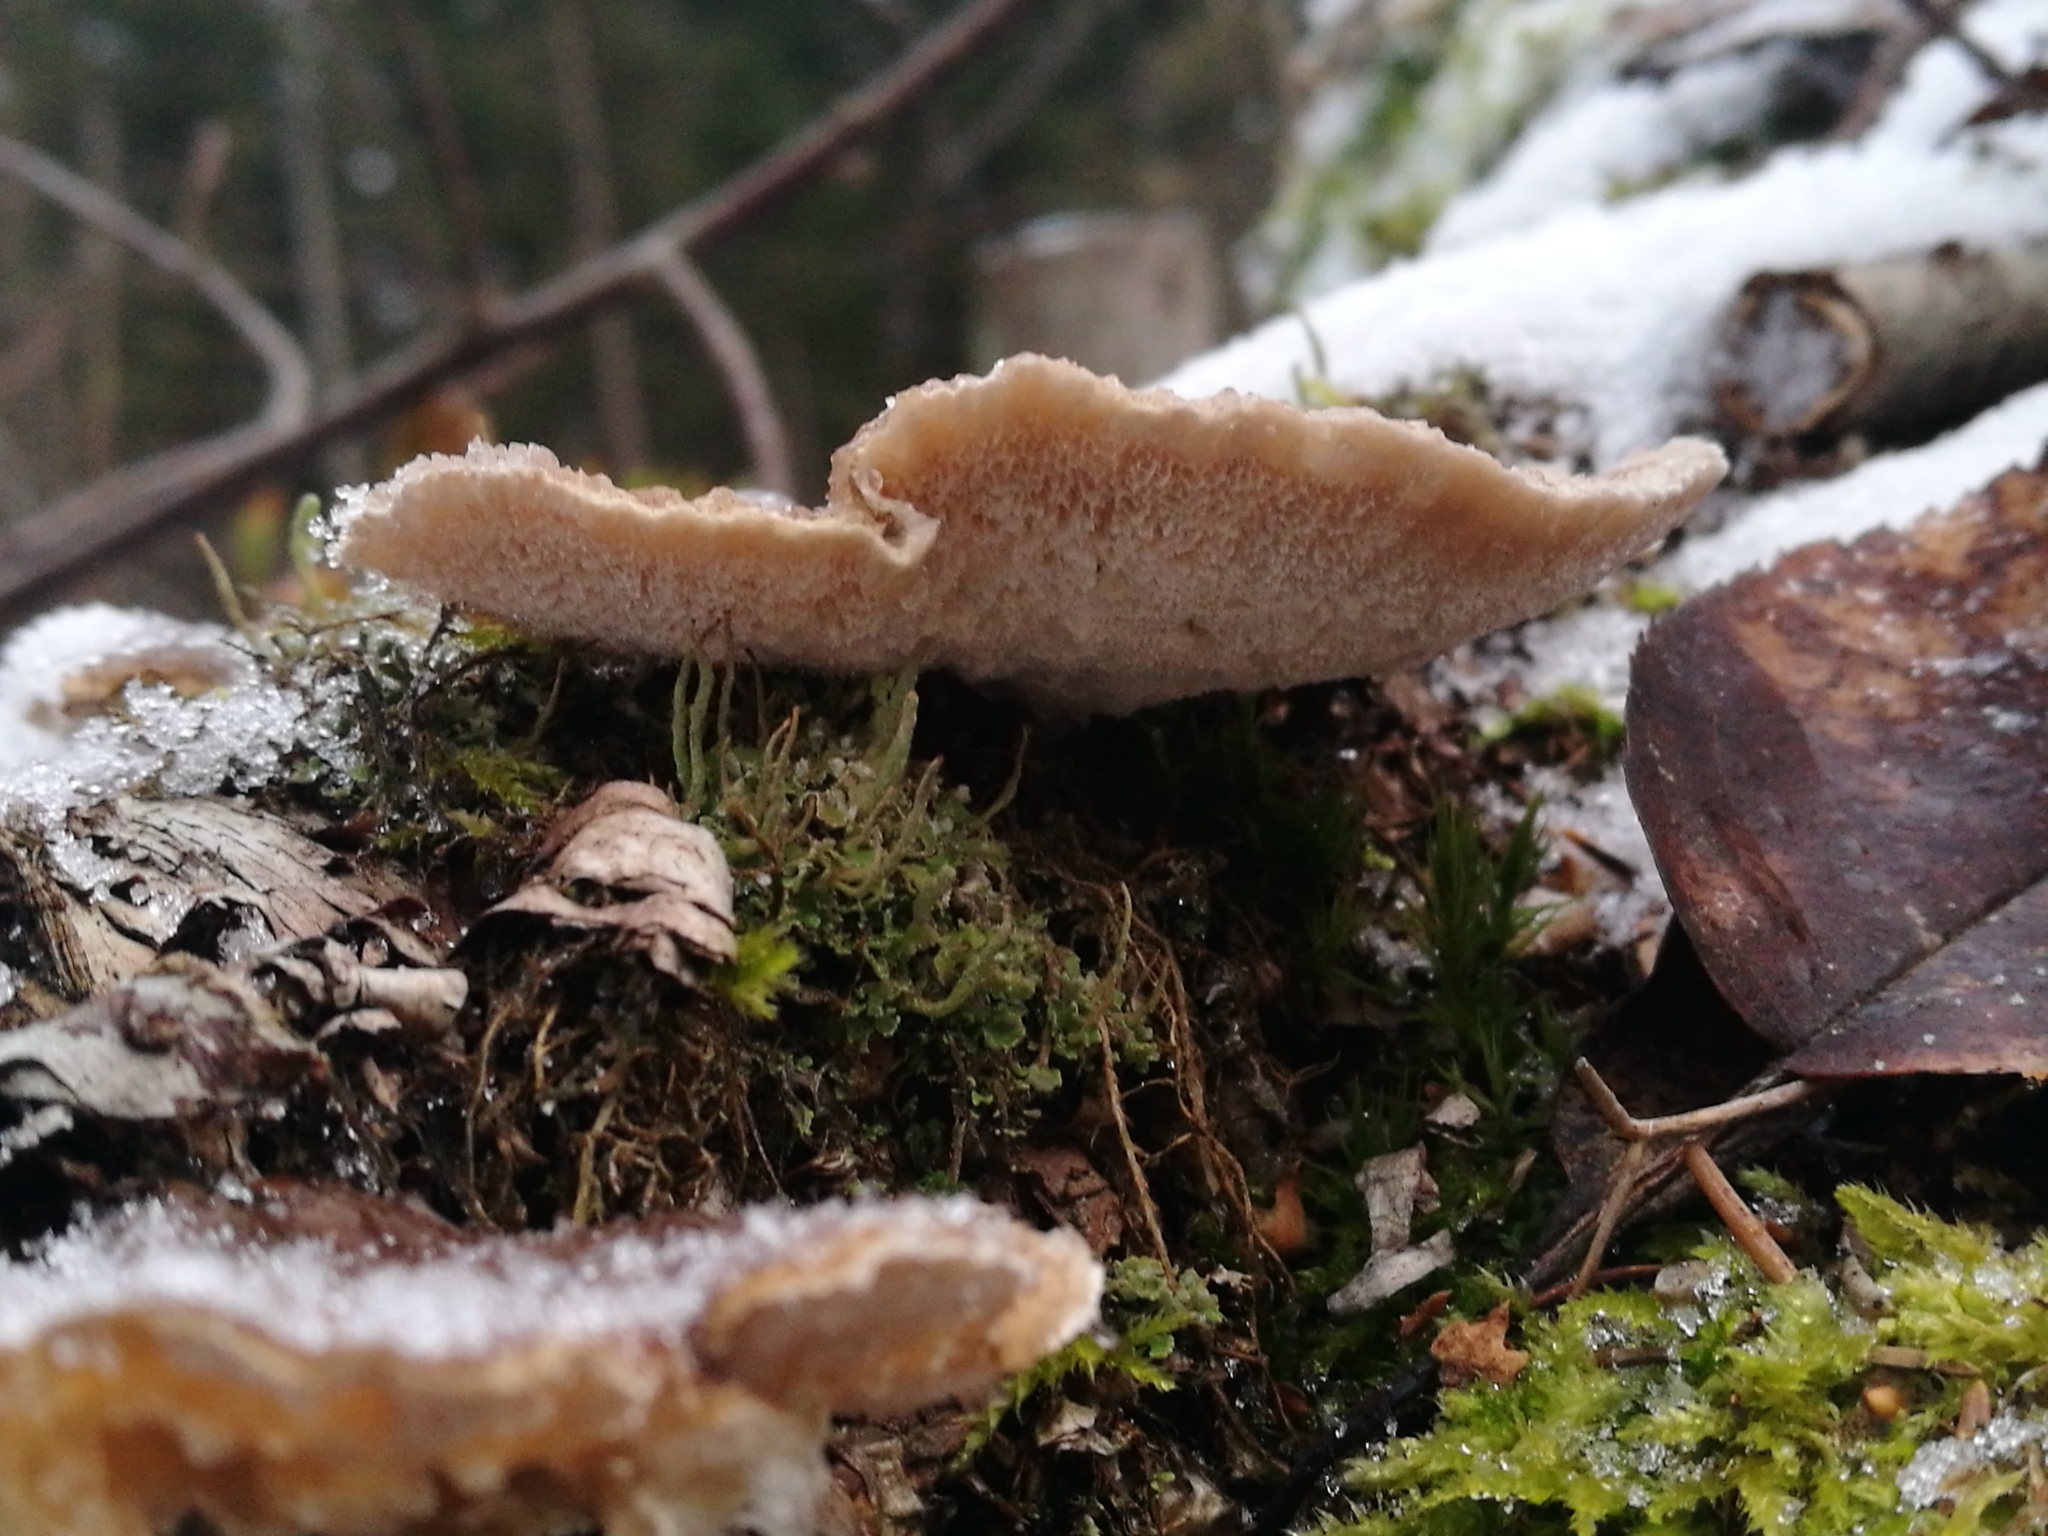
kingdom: Fungi
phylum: Basidiomycota
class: Agaricomycetes
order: Polyporales
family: Polyporaceae
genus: Trametes
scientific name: Trametes ochracea
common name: Ochre bracket
